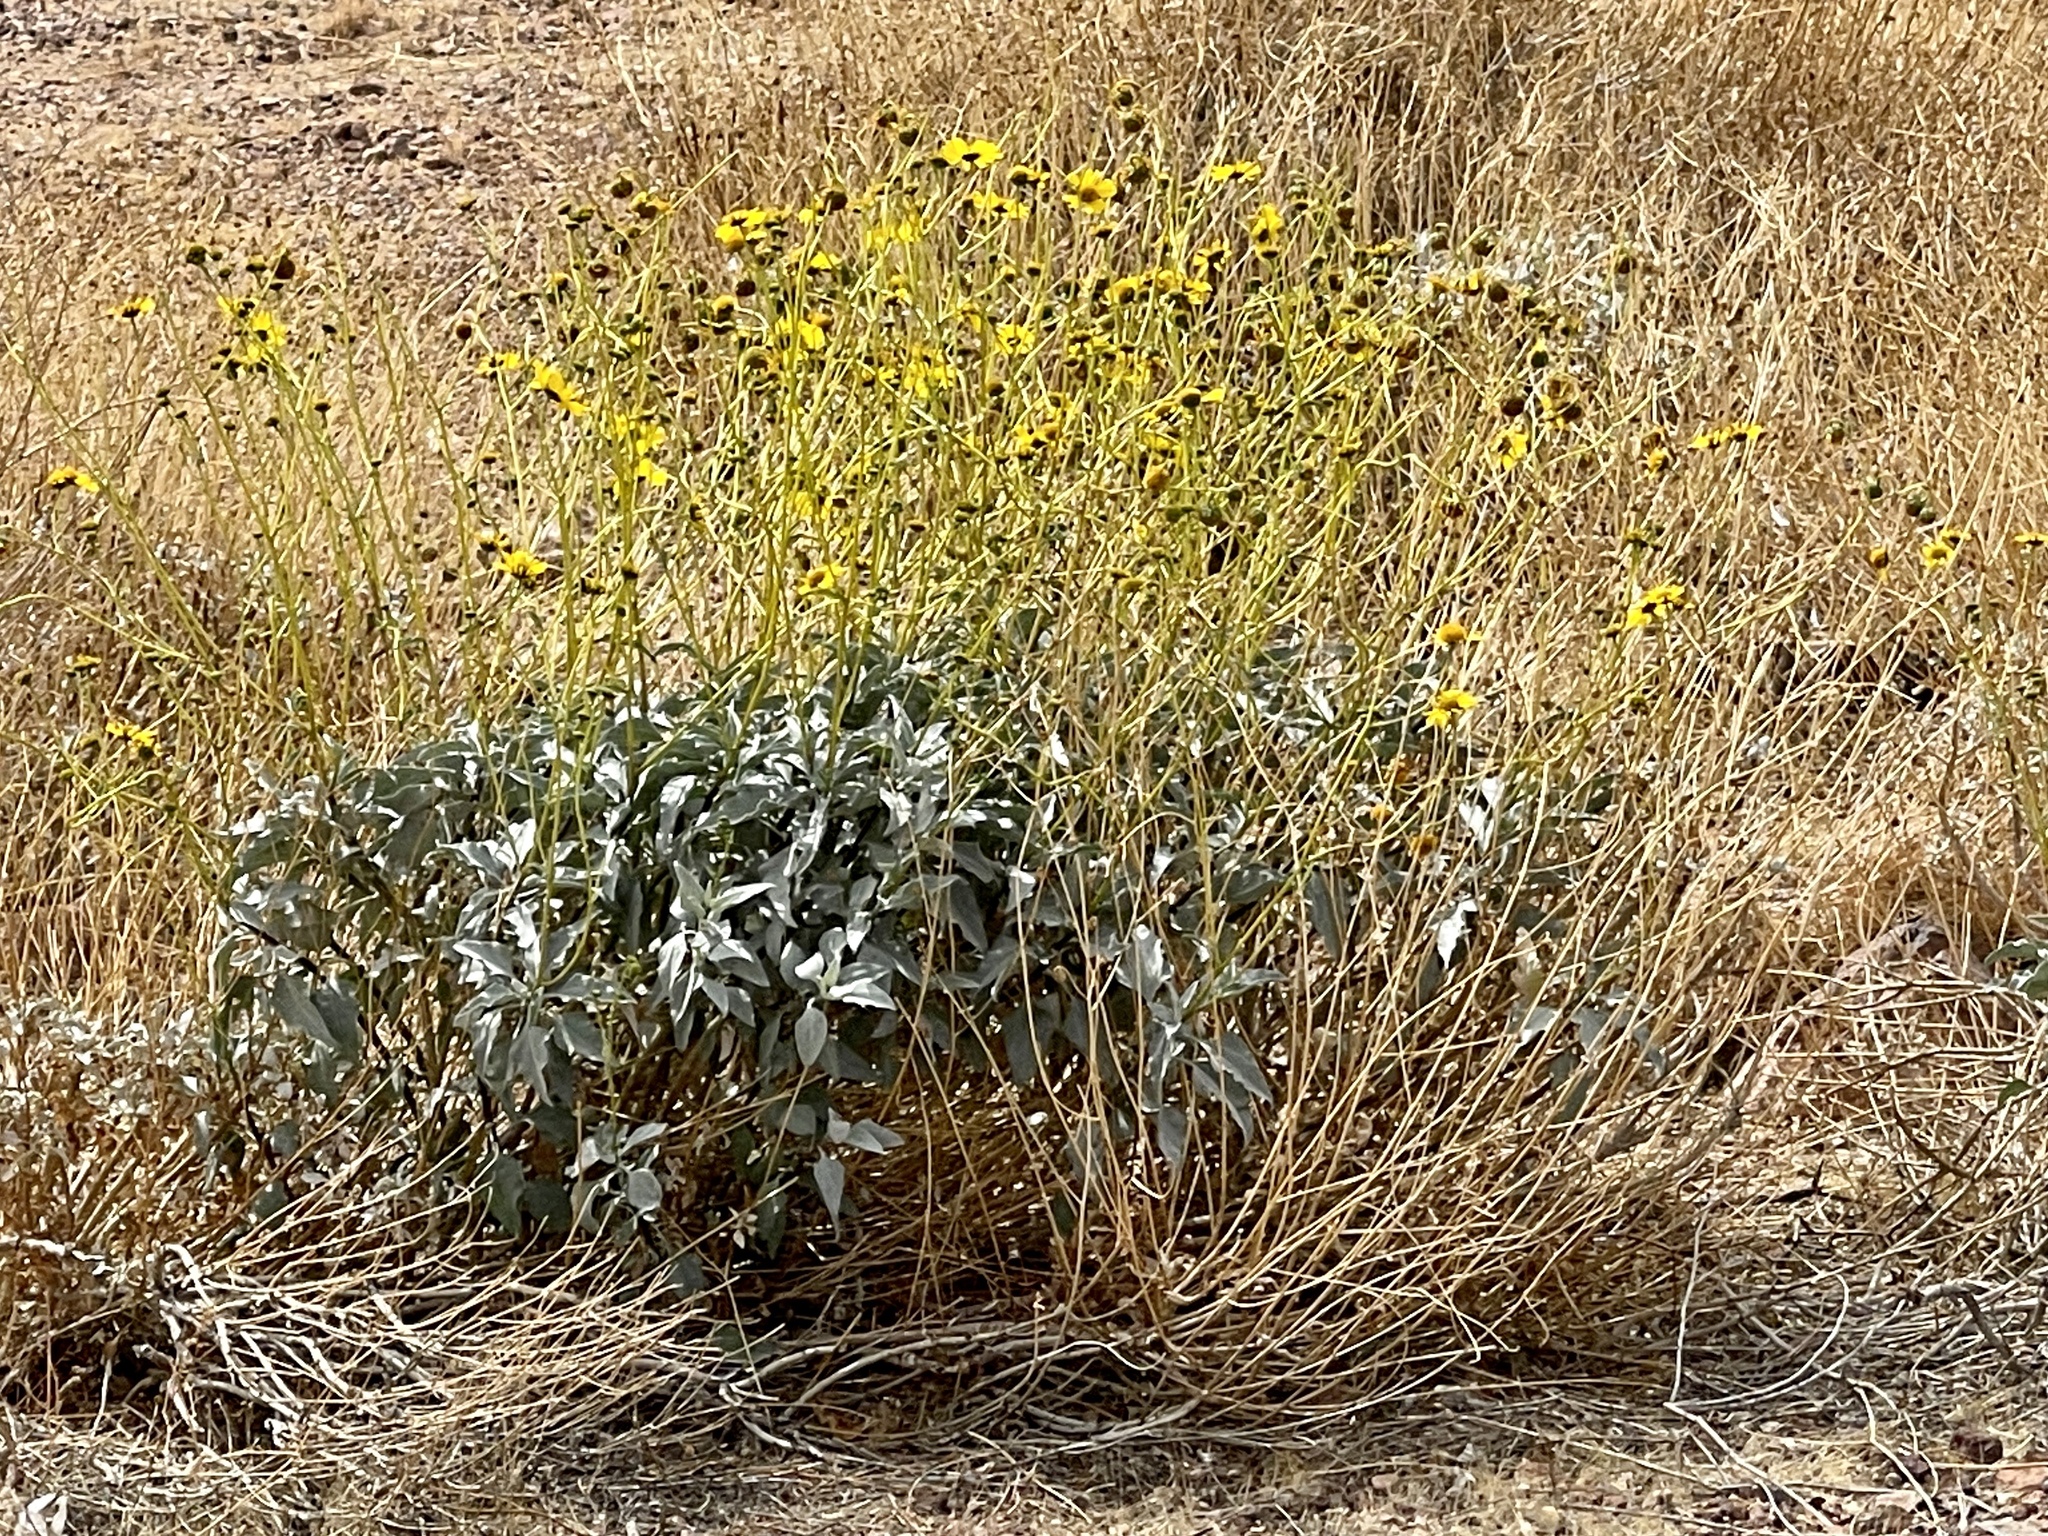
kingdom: Plantae
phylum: Tracheophyta
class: Magnoliopsida
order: Asterales
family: Asteraceae
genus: Encelia
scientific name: Encelia farinosa
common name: Brittlebush
